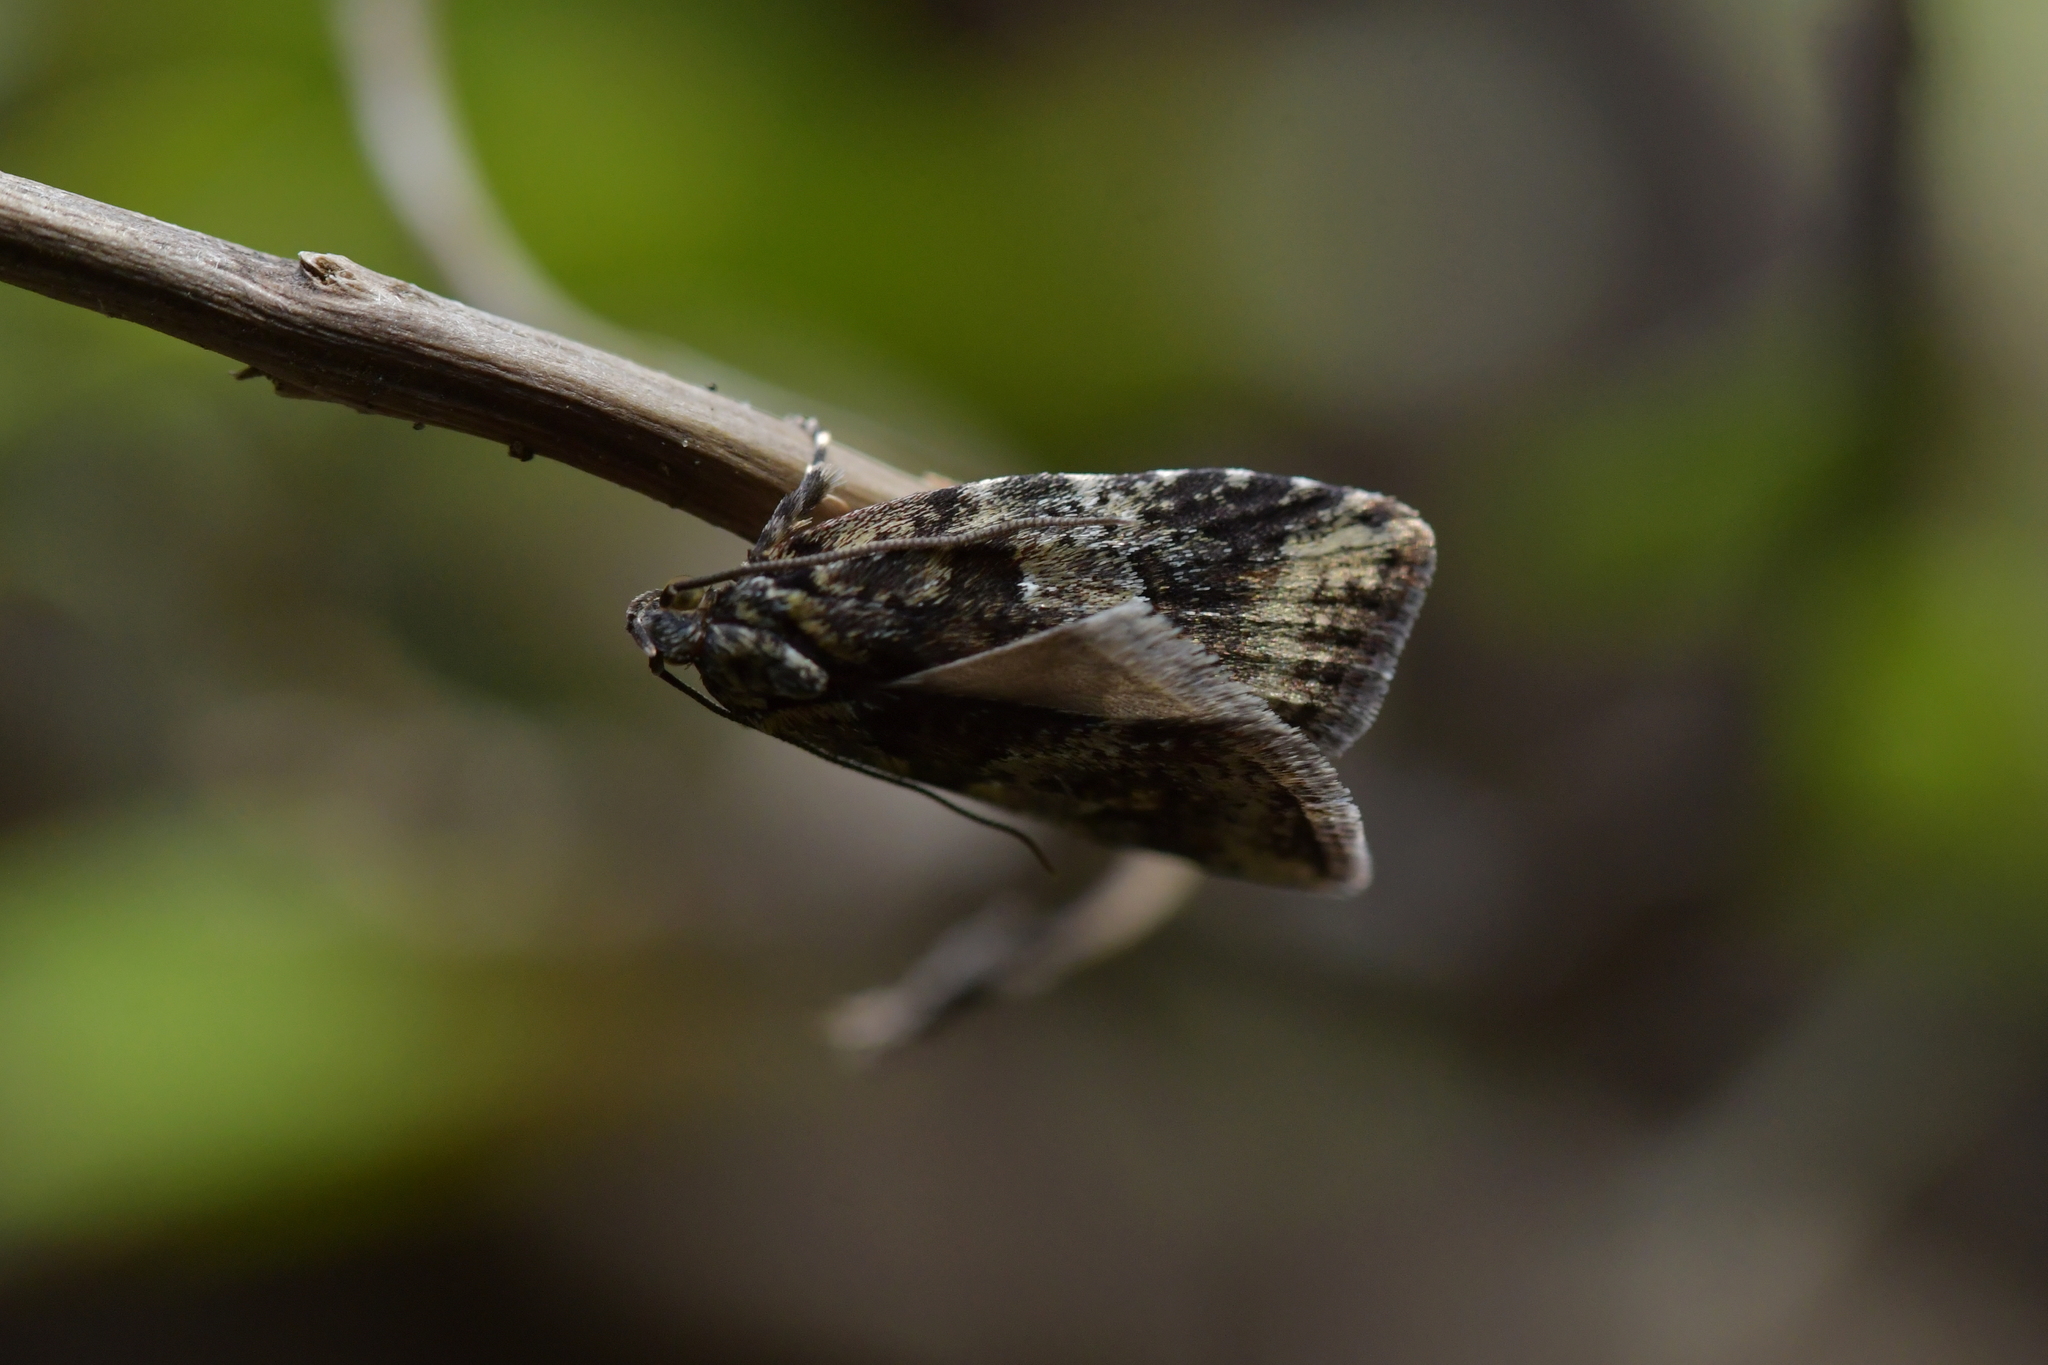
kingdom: Animalia
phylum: Arthropoda
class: Insecta
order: Lepidoptera
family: Oecophoridae
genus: Proteodes
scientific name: Proteodes profunda
